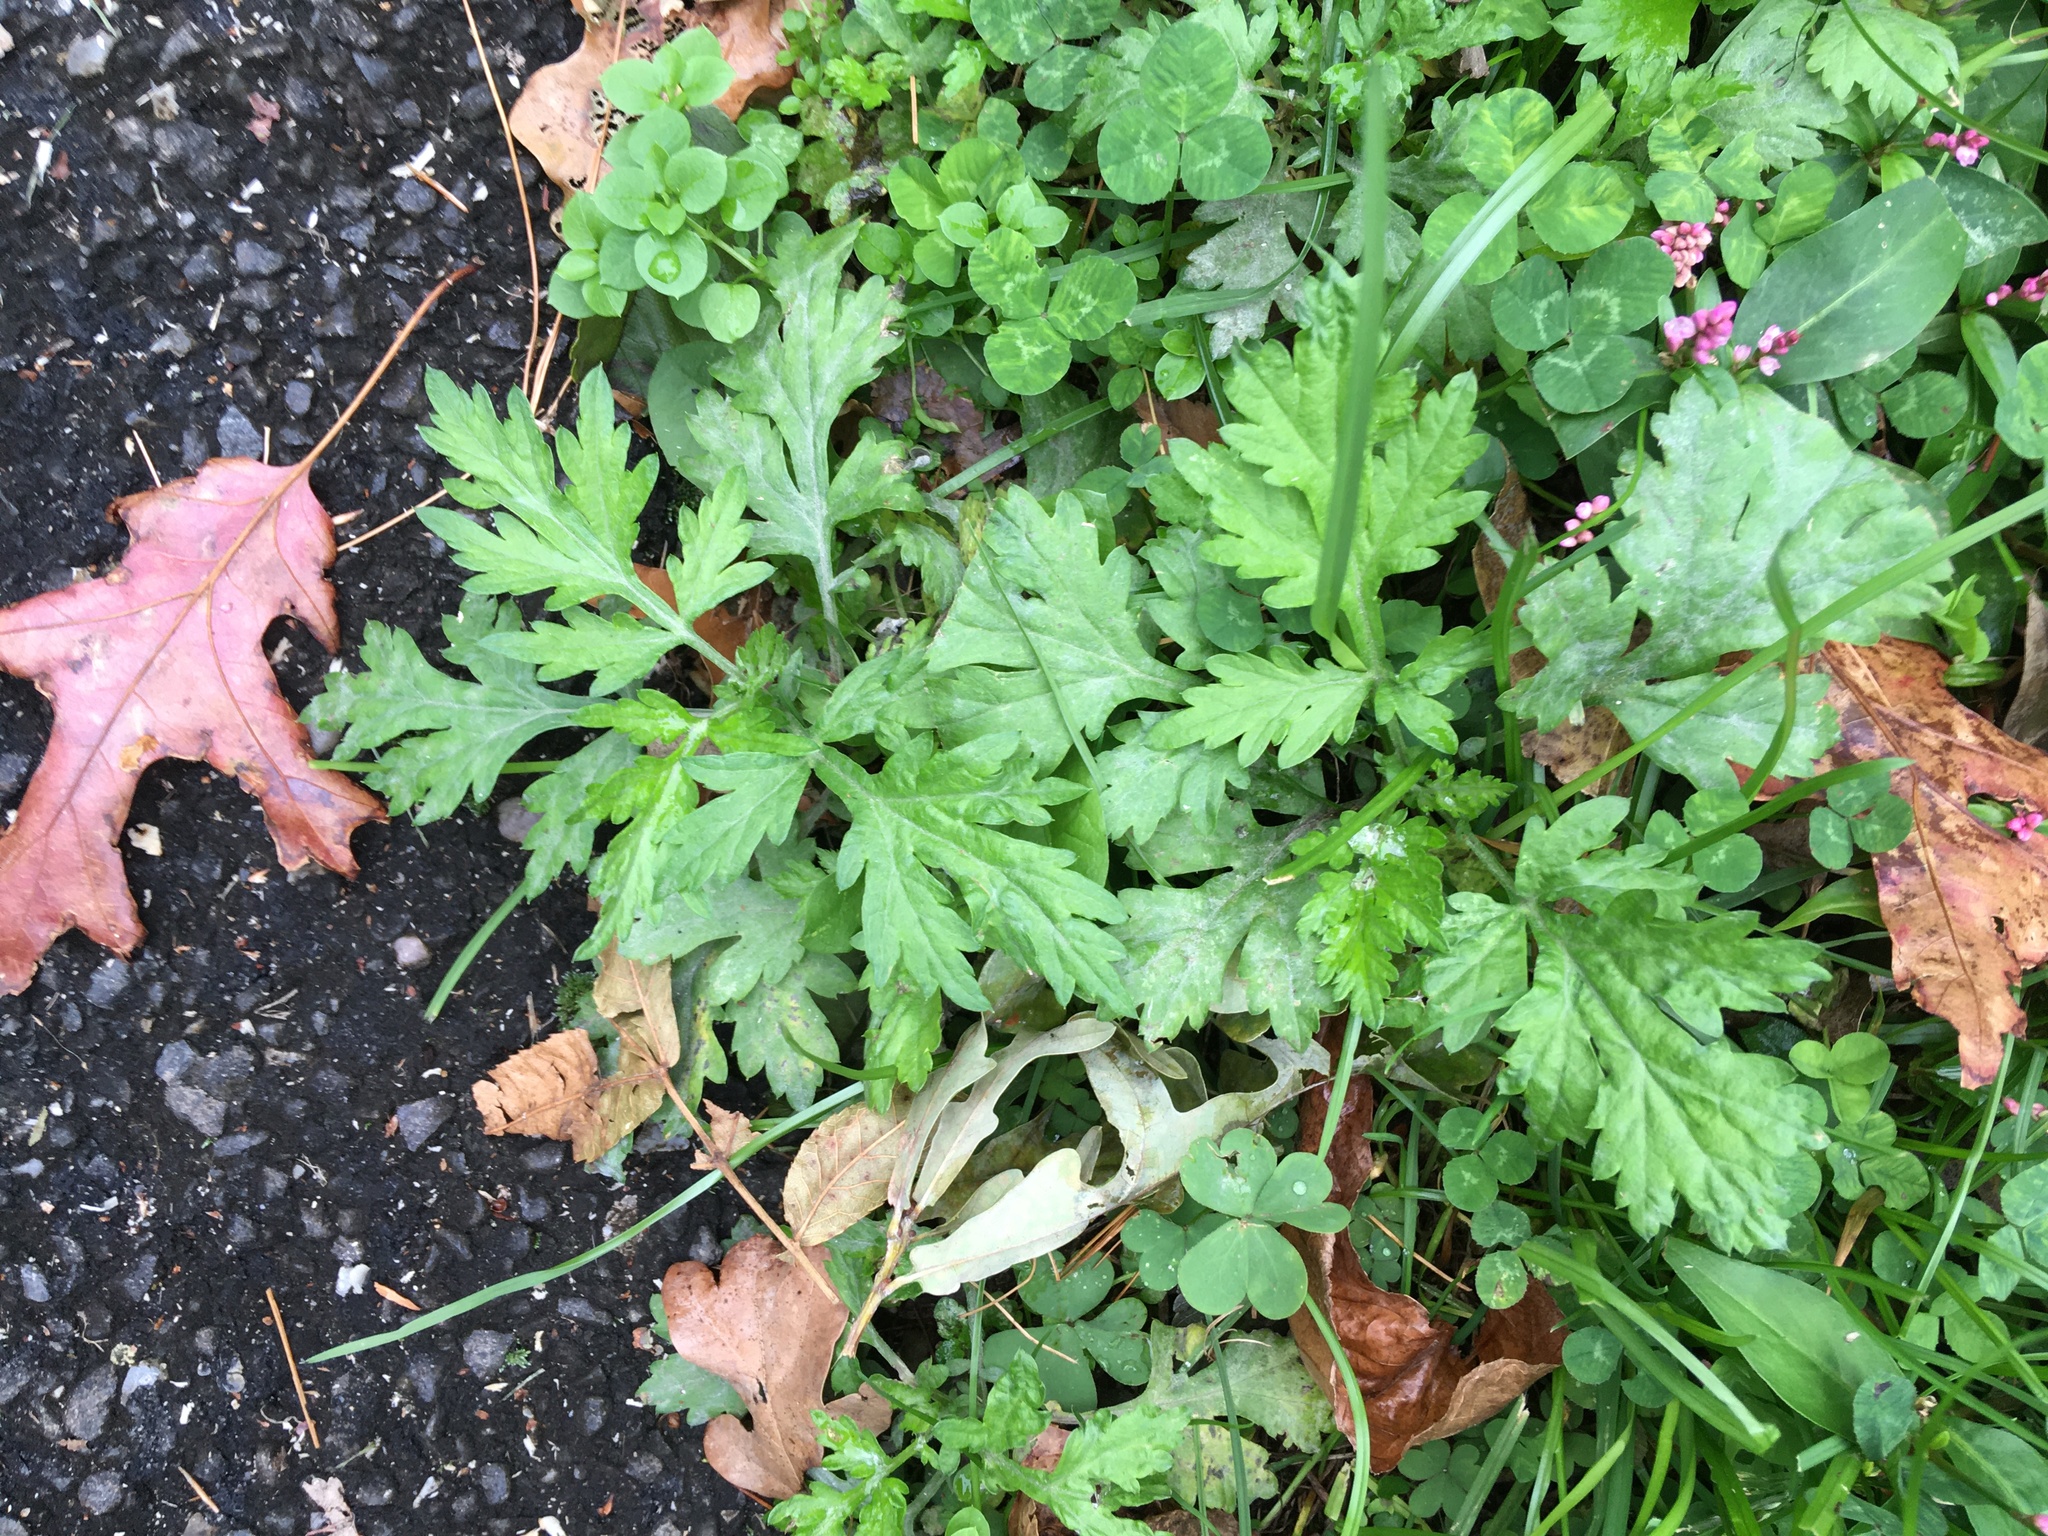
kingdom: Plantae
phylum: Tracheophyta
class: Magnoliopsida
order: Asterales
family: Asteraceae
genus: Artemisia
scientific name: Artemisia vulgaris
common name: Mugwort
